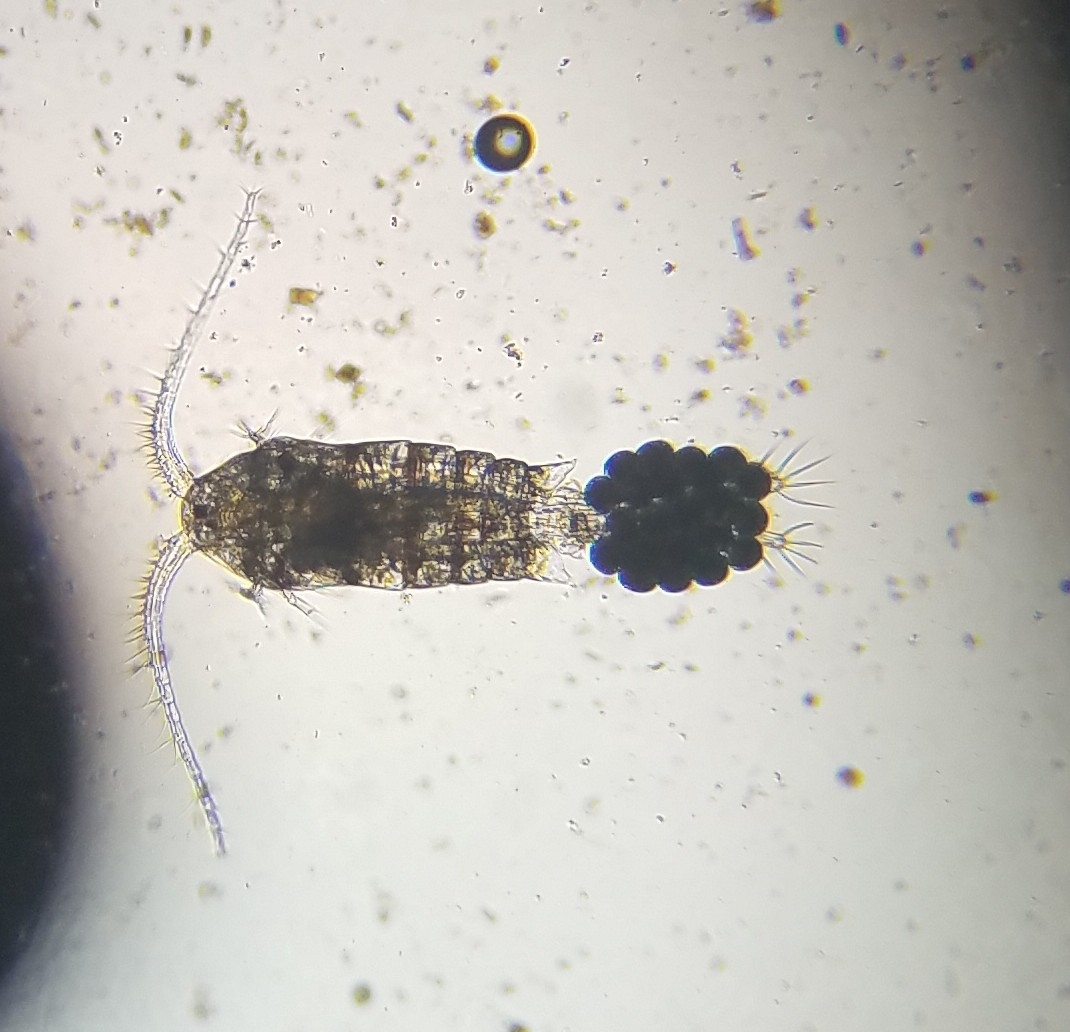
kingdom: Animalia
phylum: Arthropoda
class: Copepoda
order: Calanoida
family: Temoridae
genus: Eurytemora
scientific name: Eurytemora
